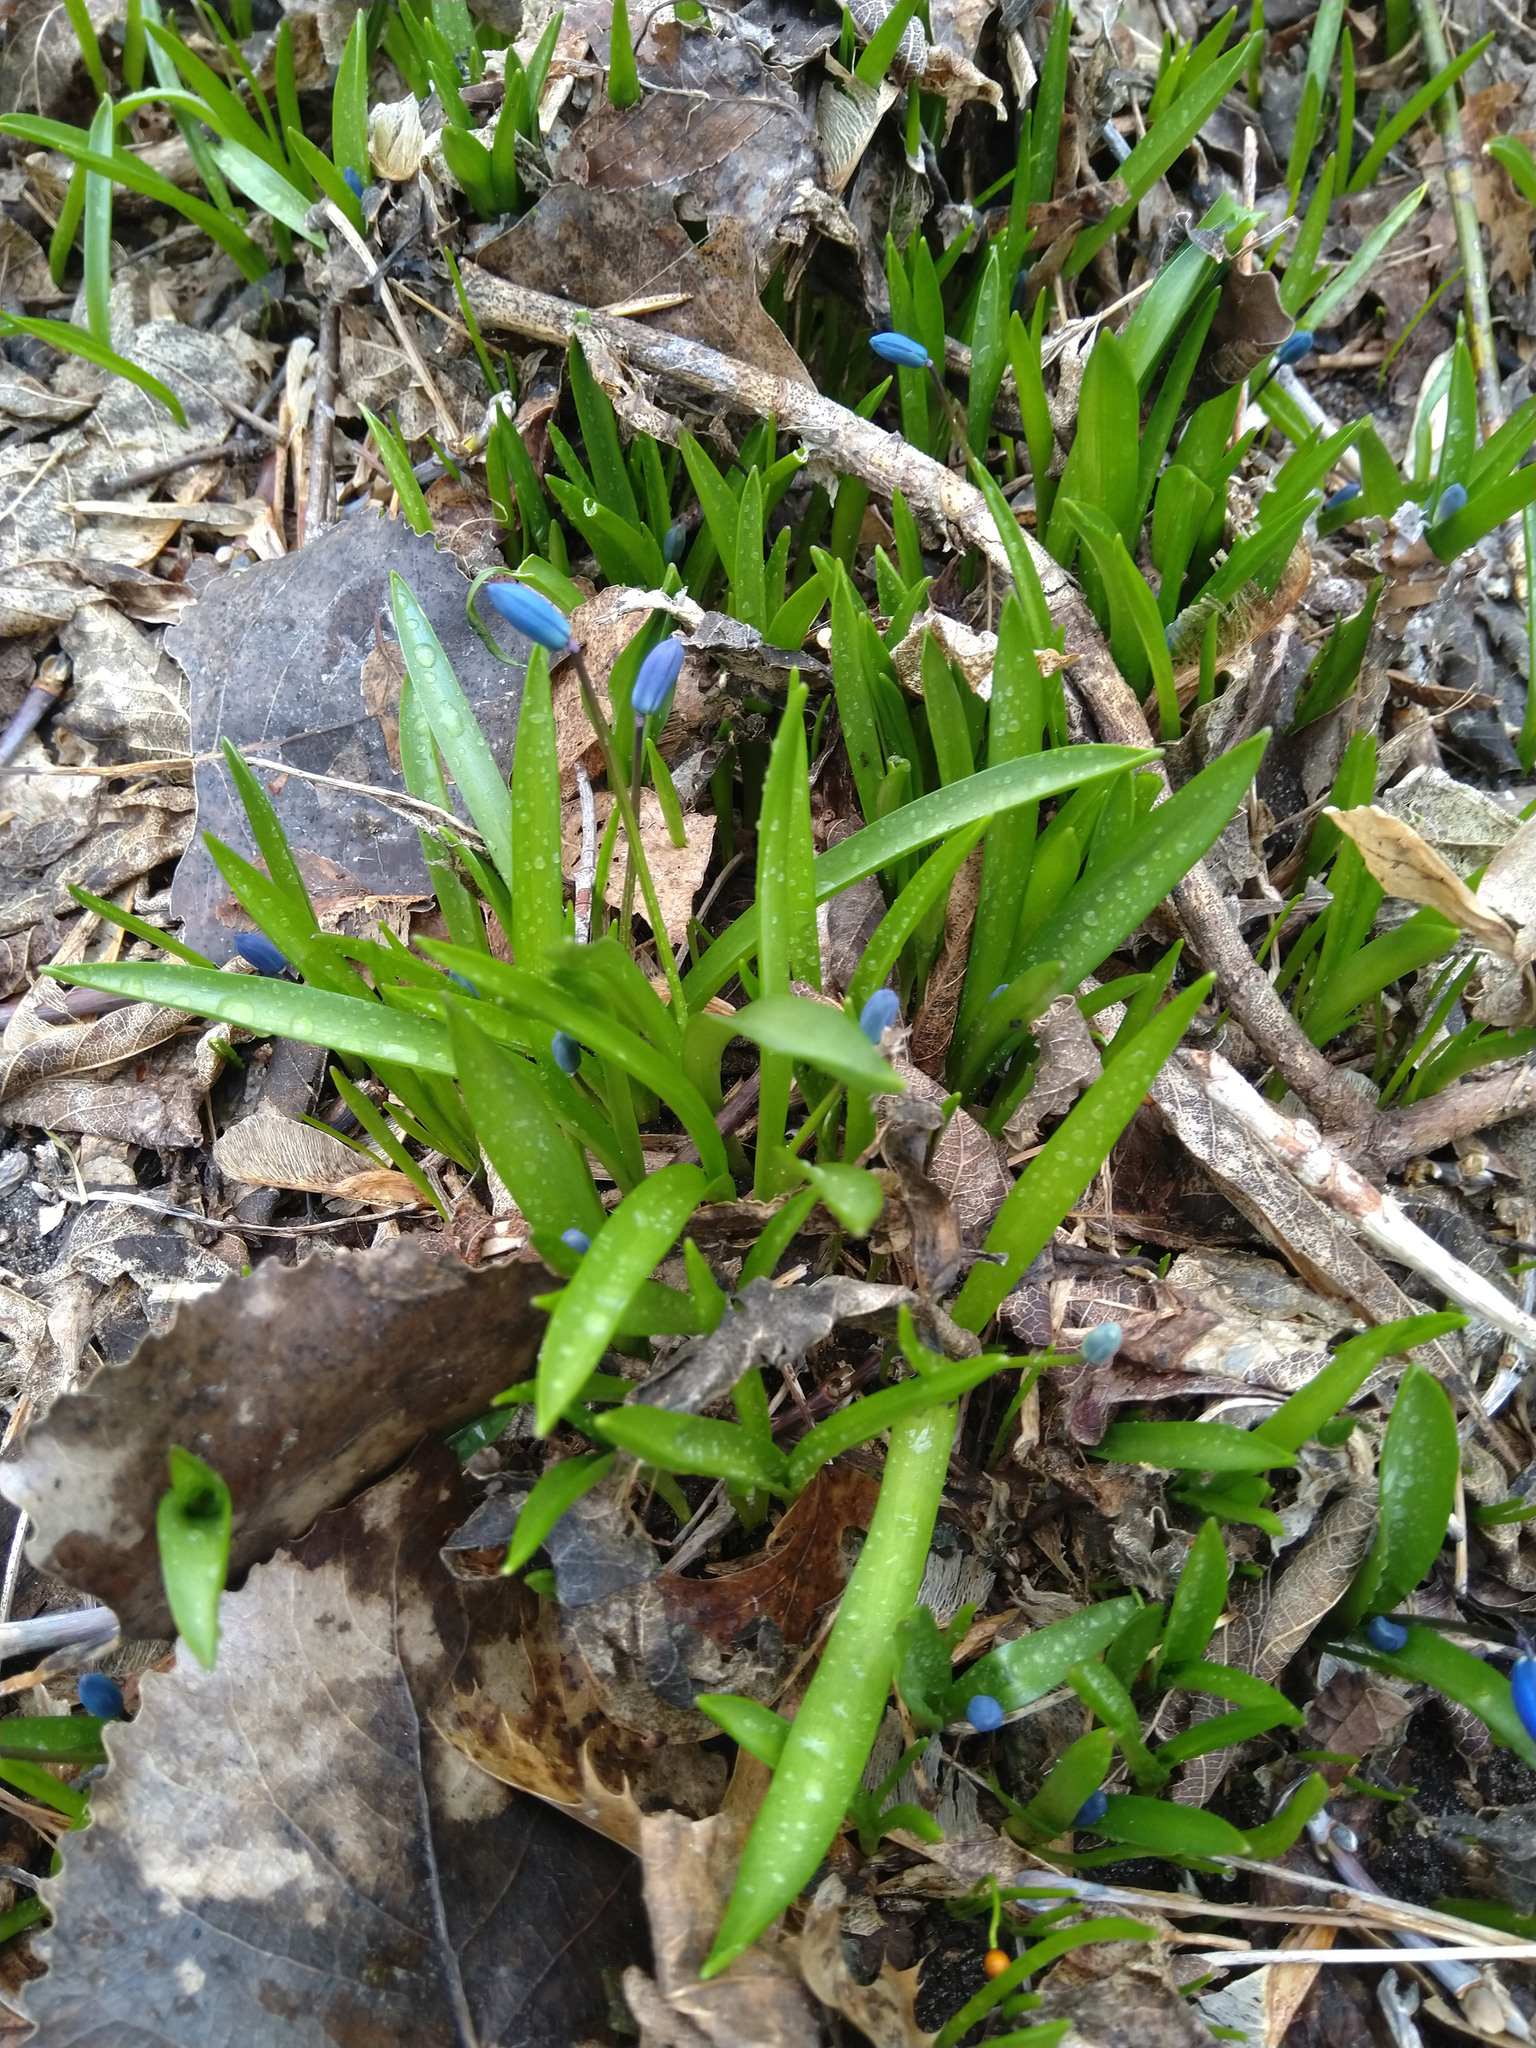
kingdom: Plantae
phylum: Tracheophyta
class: Liliopsida
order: Asparagales
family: Asparagaceae
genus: Scilla
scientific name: Scilla siberica
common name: Siberian squill
